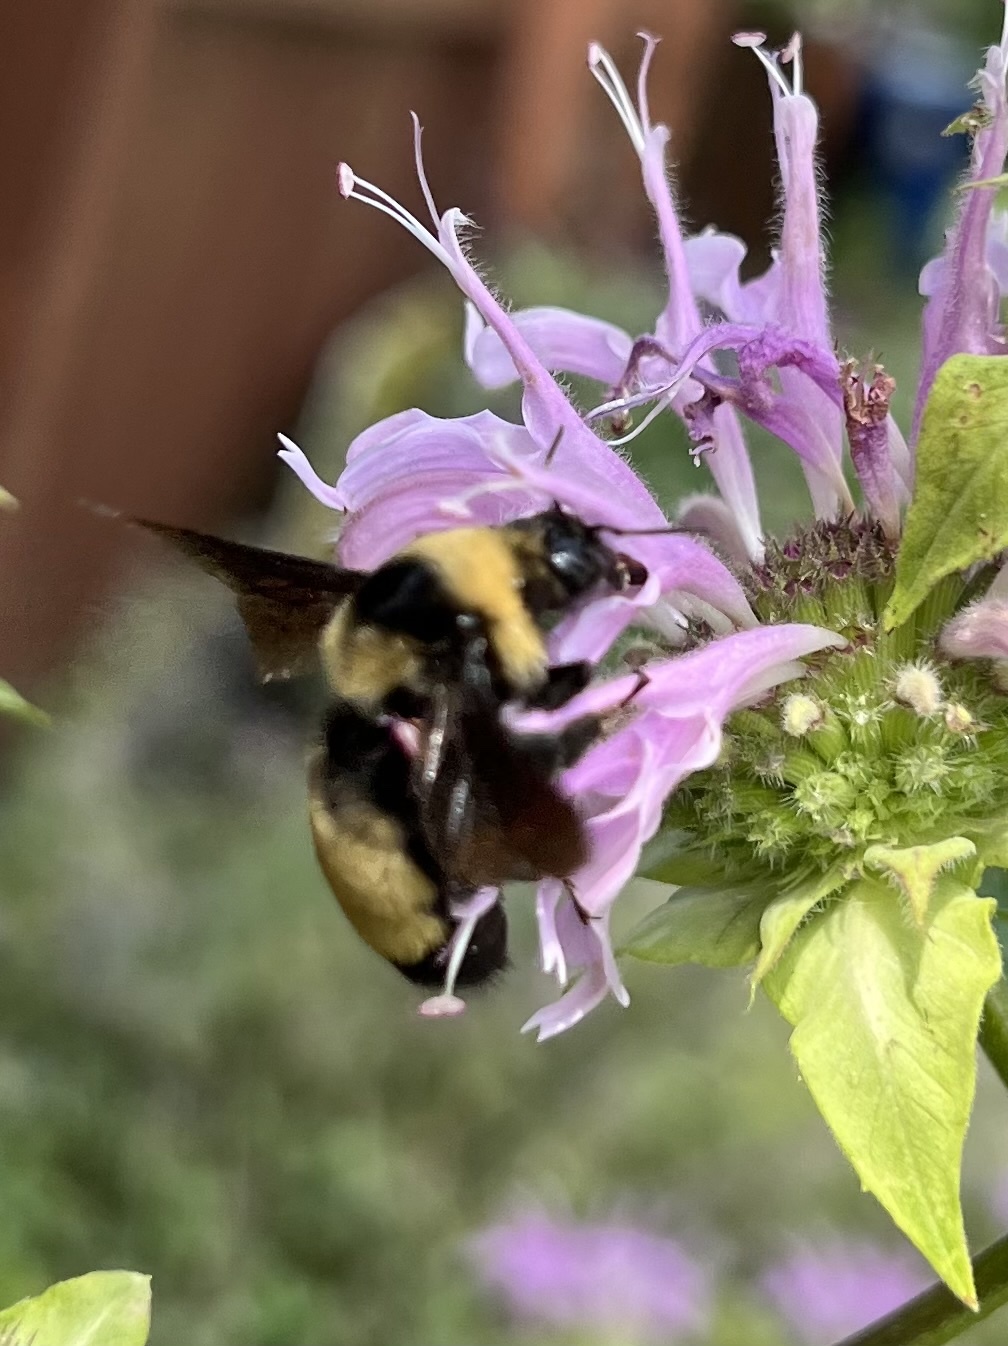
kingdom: Animalia
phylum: Arthropoda
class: Insecta
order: Hymenoptera
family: Apidae
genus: Bombus
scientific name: Bombus auricomus
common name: Black and gold bumble bee
